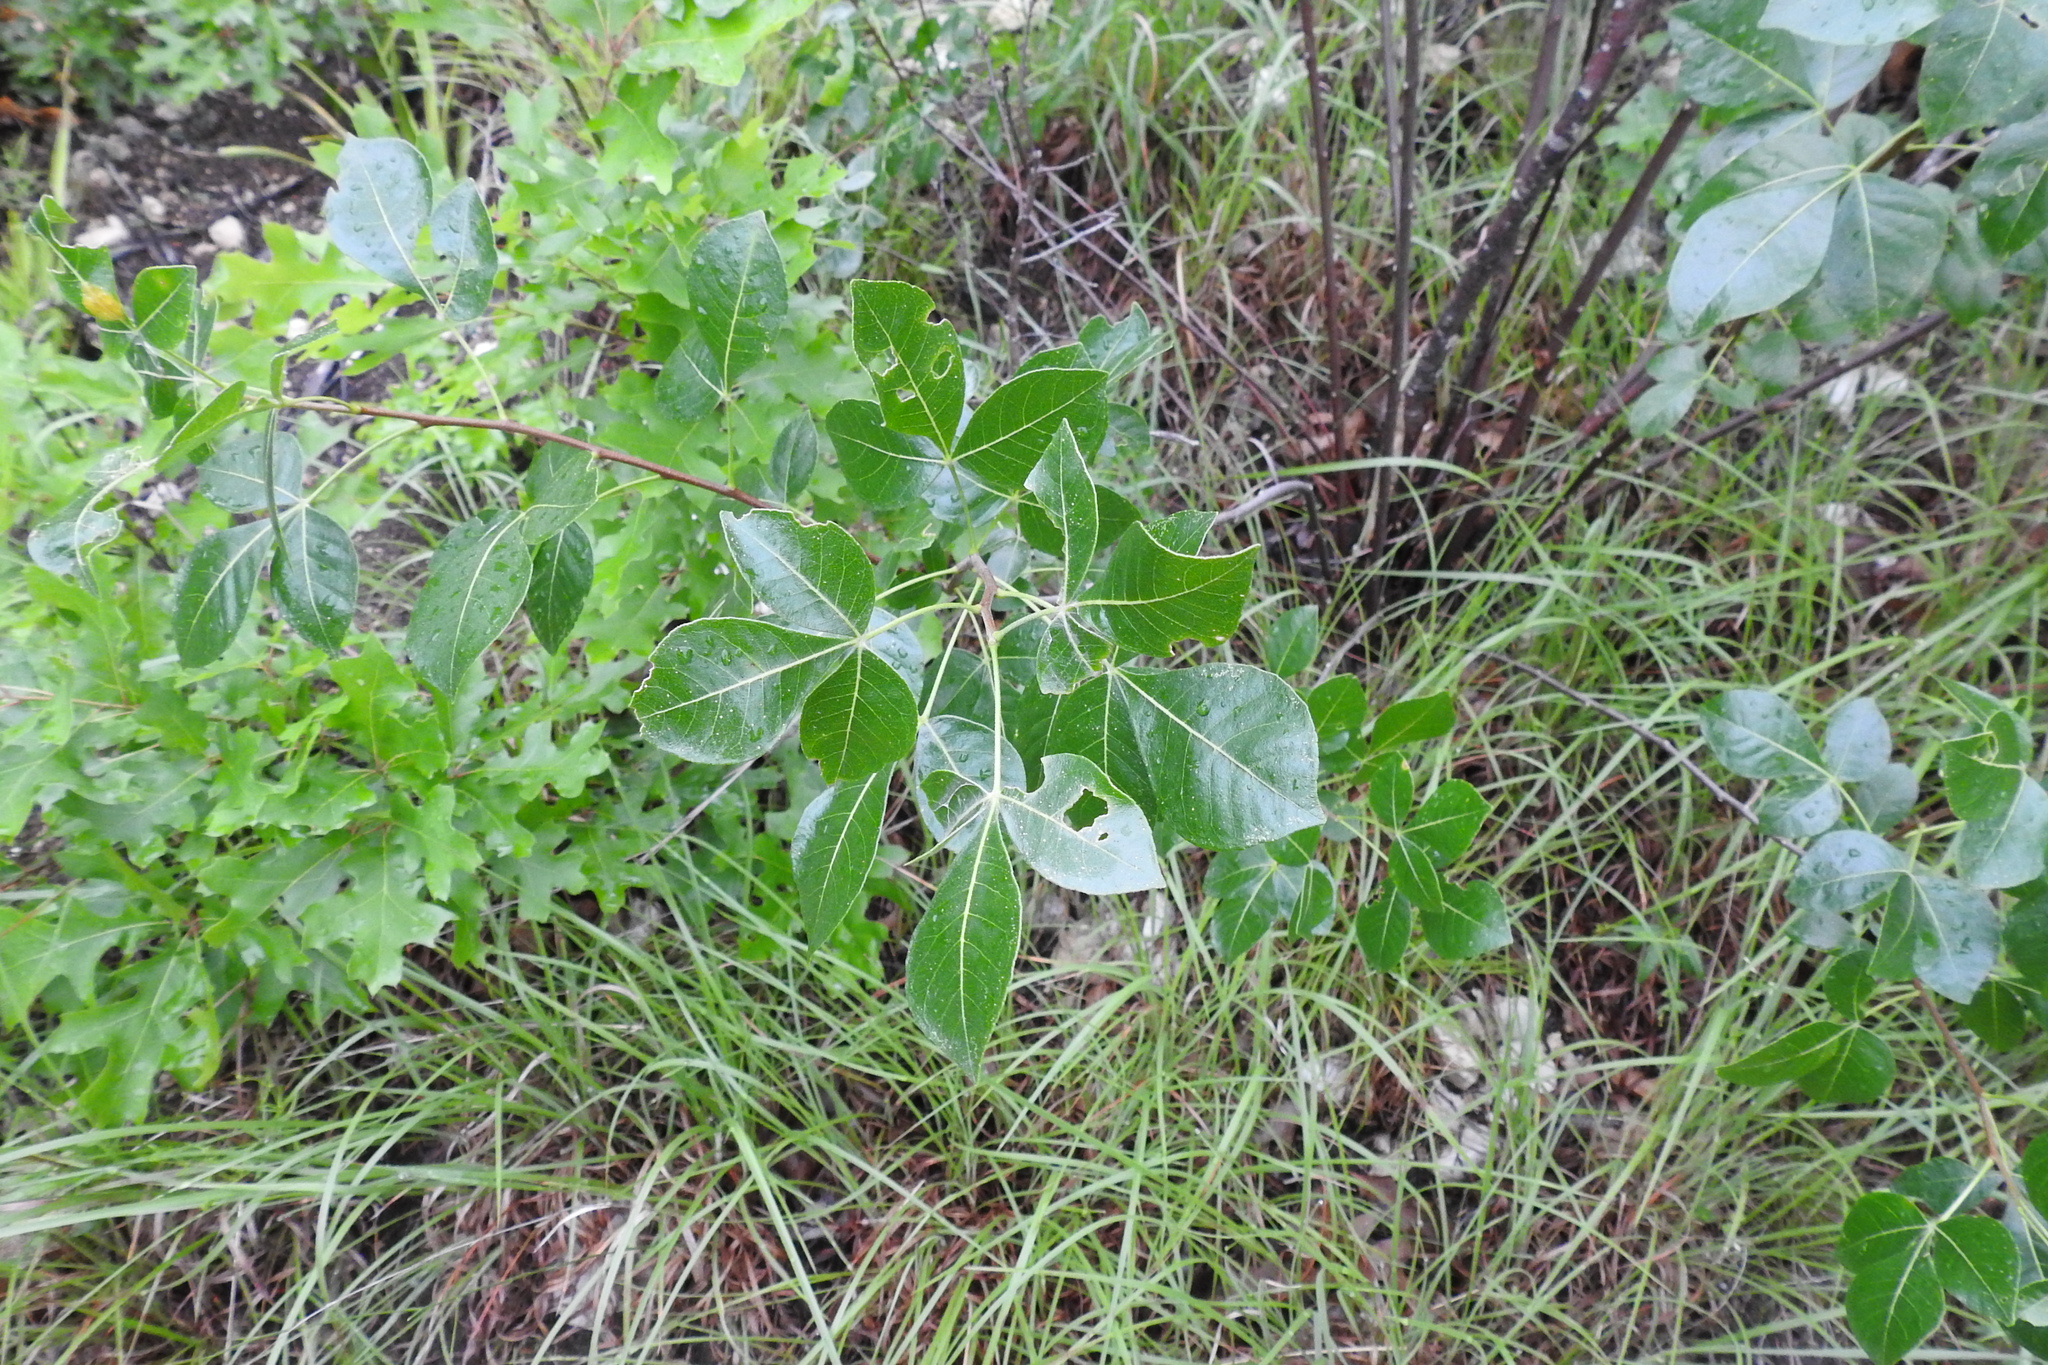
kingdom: Plantae
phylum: Tracheophyta
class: Magnoliopsida
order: Sapindales
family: Rutaceae
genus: Ptelea
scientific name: Ptelea trifoliata
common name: Common hop-tree
